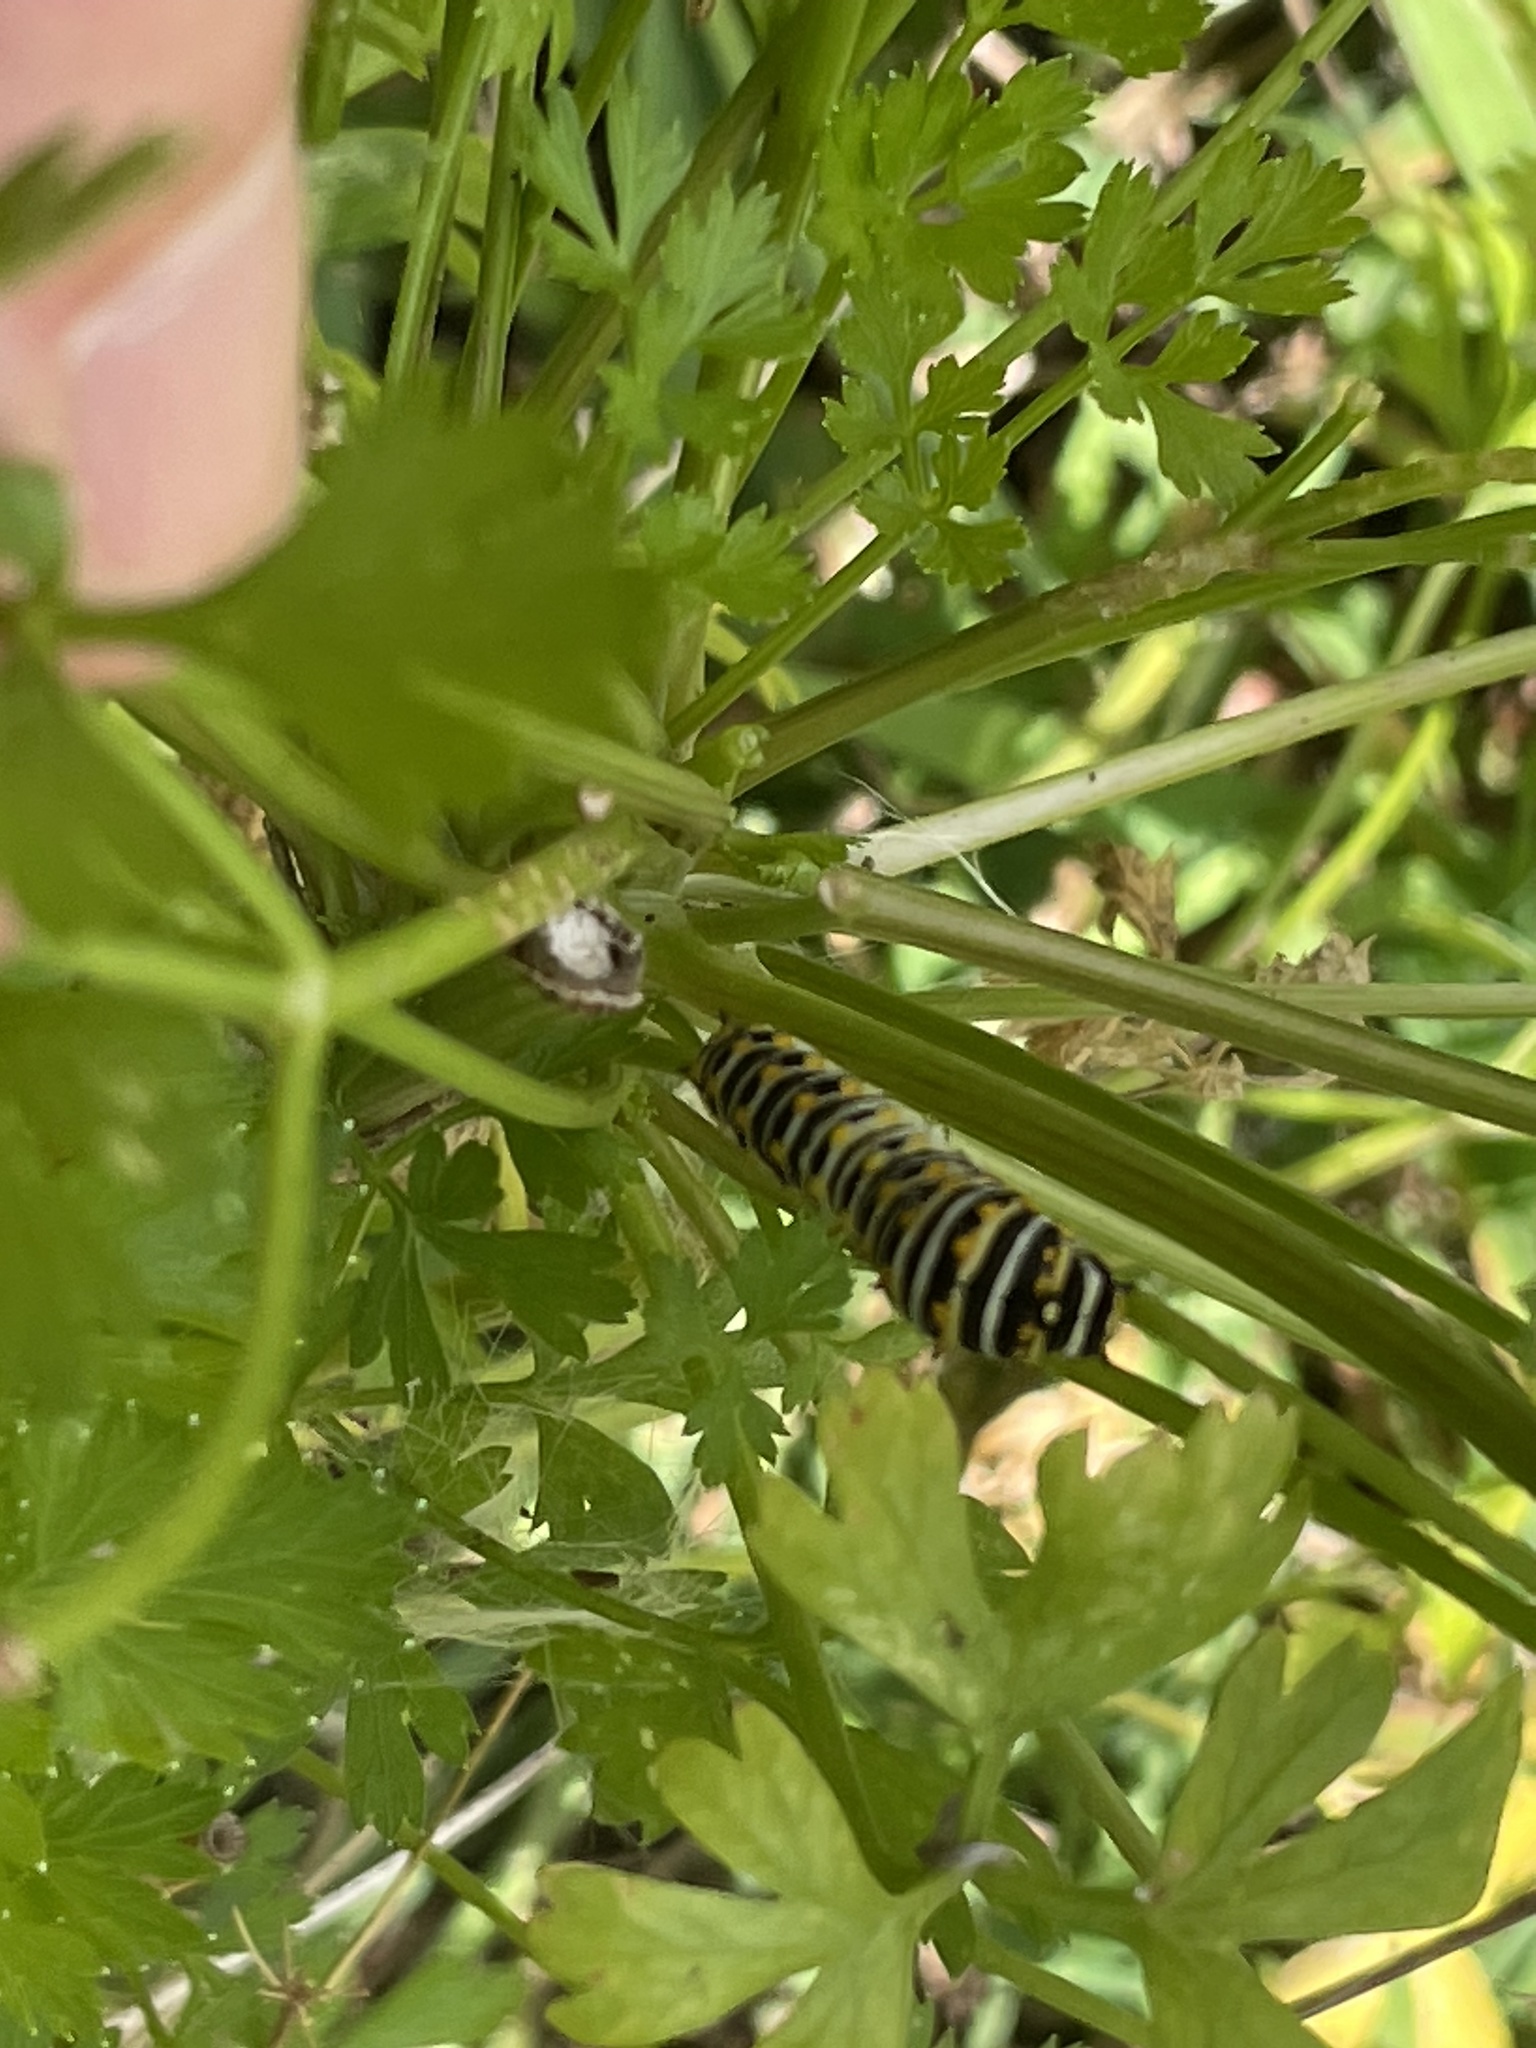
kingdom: Animalia
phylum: Arthropoda
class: Insecta
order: Lepidoptera
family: Papilionidae
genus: Papilio
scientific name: Papilio polyxenes
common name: Black swallowtail
